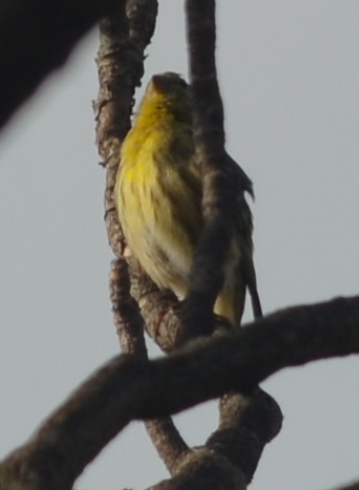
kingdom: Animalia
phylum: Chordata
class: Aves
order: Passeriformes
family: Fringillidae
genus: Serinus
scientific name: Serinus serinus
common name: European serin
